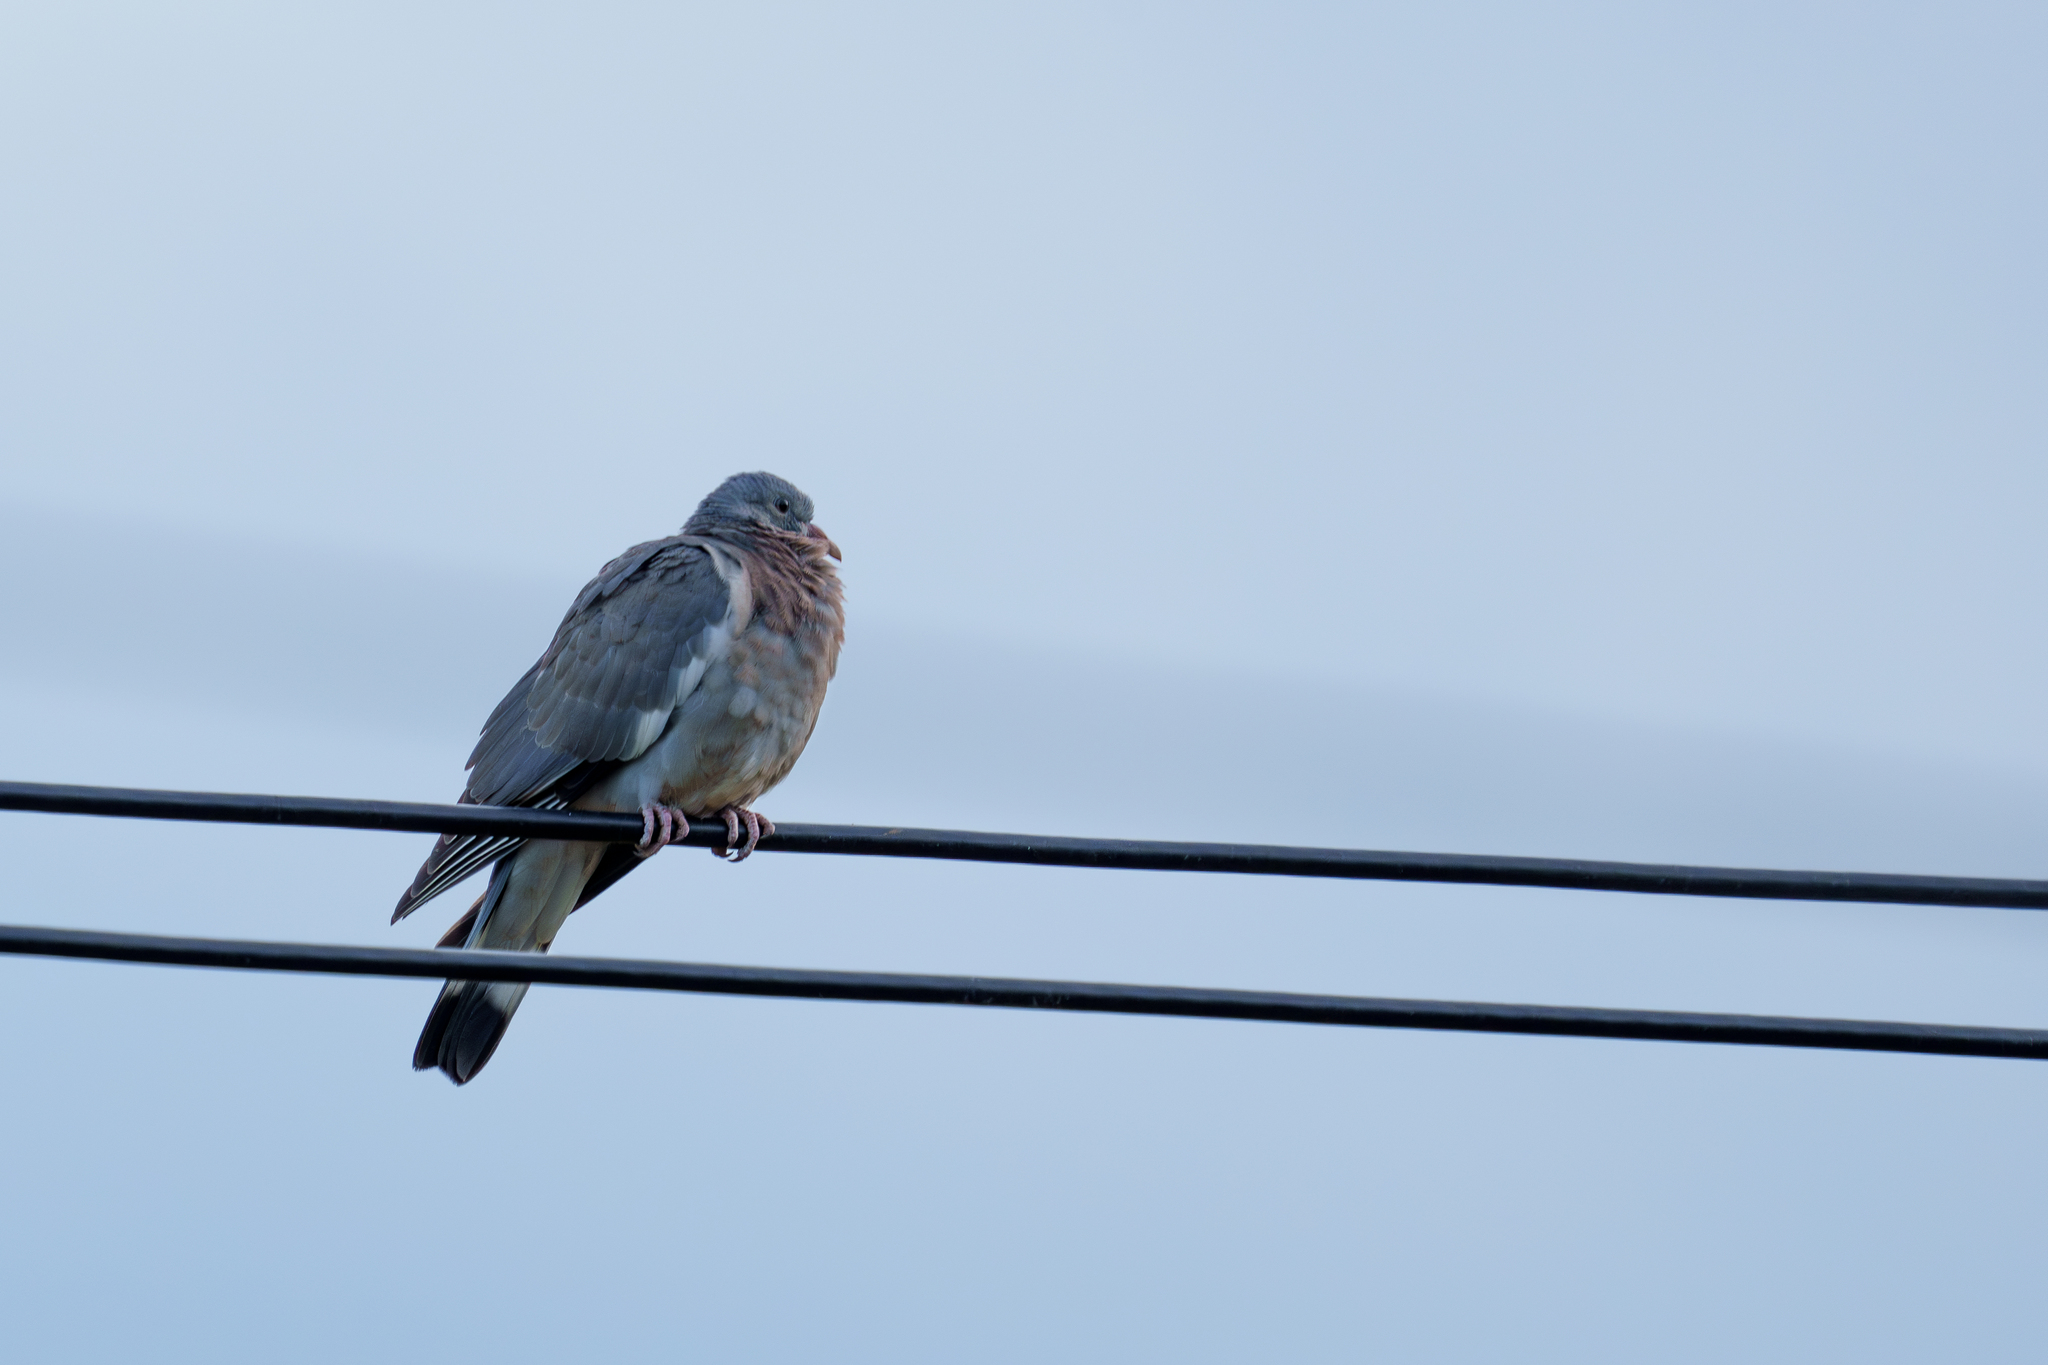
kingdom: Animalia
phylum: Chordata
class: Aves
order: Columbiformes
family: Columbidae
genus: Columba
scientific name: Columba palumbus
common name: Common wood pigeon
